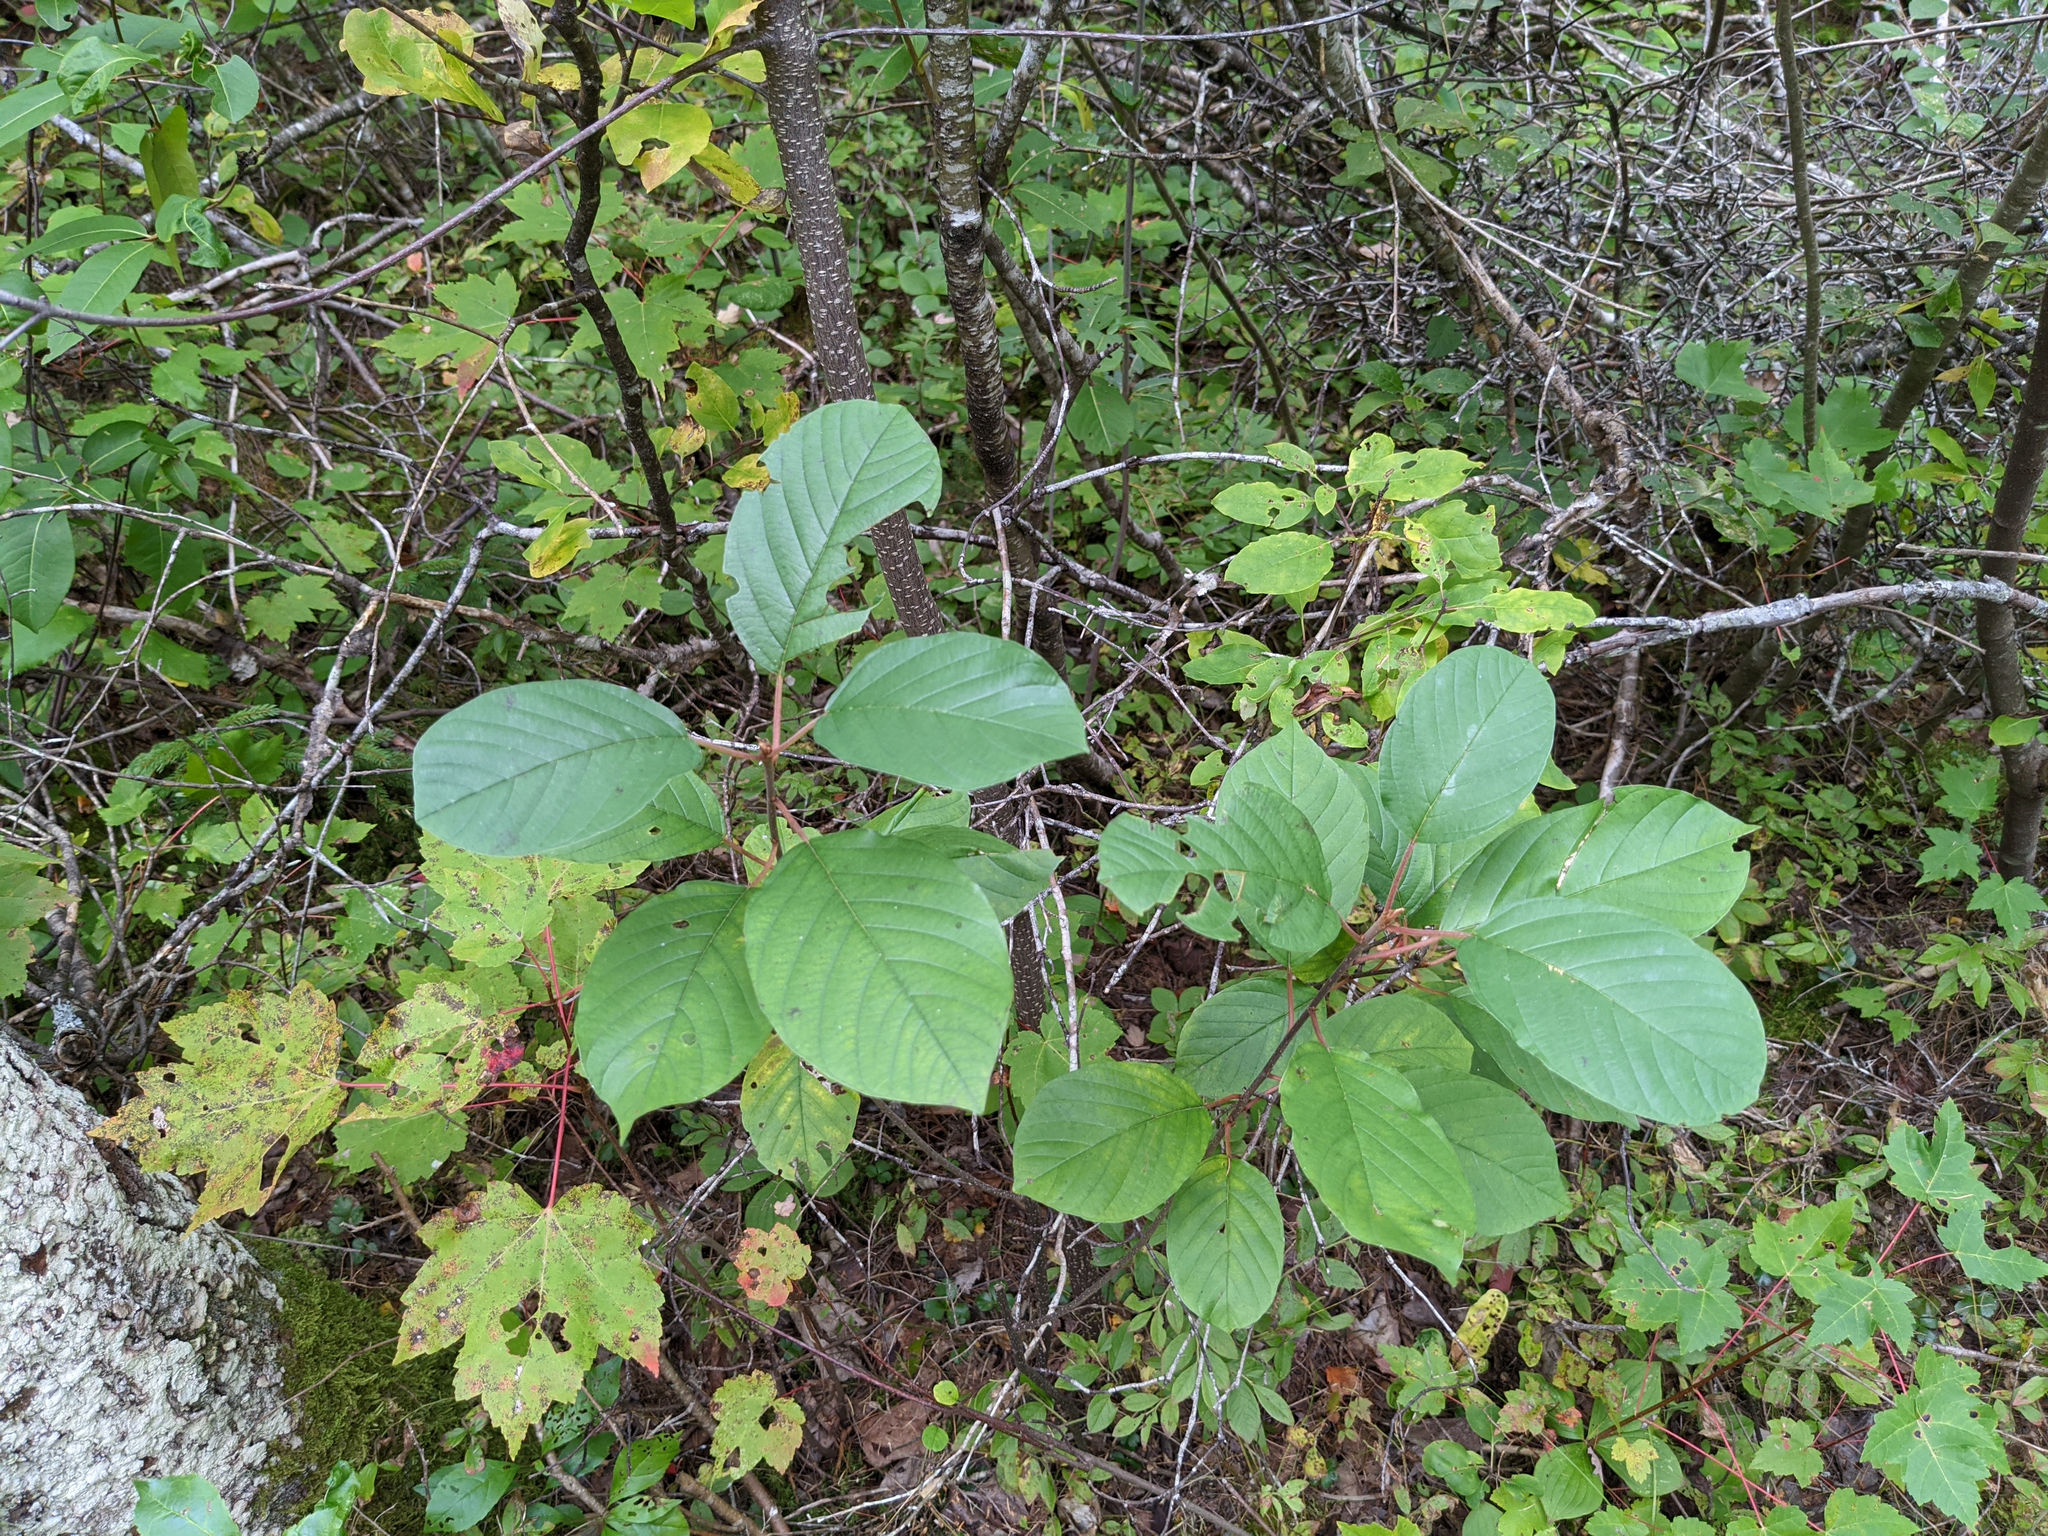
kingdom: Plantae
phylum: Tracheophyta
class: Magnoliopsida
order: Rosales
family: Rhamnaceae
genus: Frangula
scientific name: Frangula alnus
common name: Alder buckthorn
